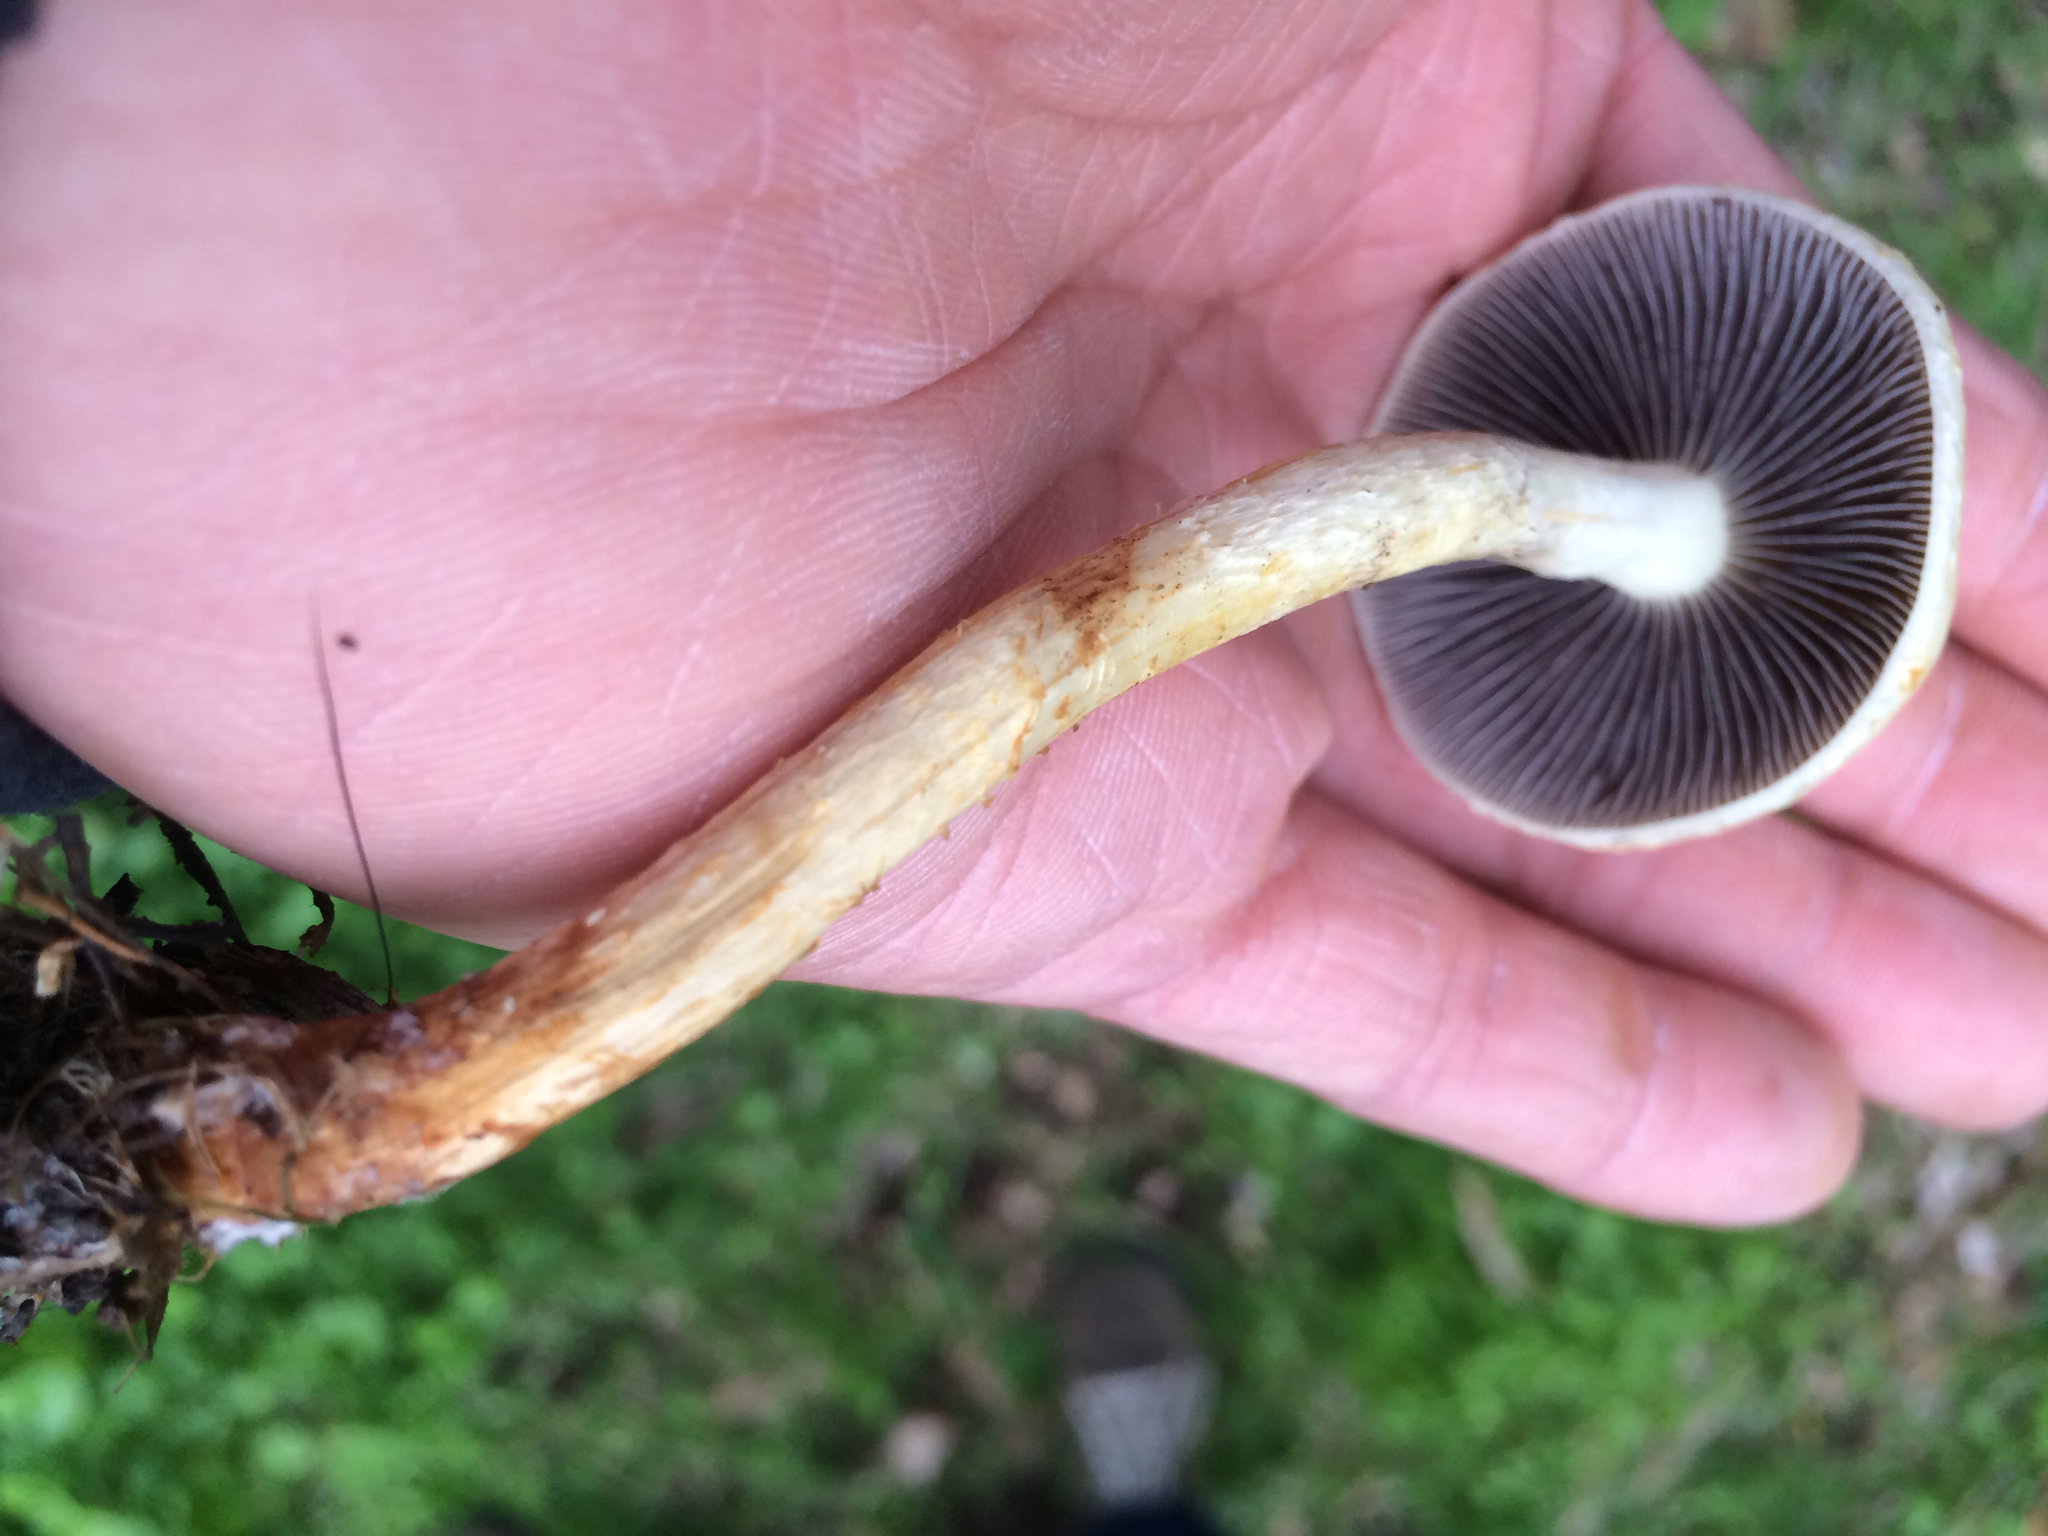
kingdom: Fungi
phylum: Basidiomycota
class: Agaricomycetes
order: Agaricales
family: Strophariaceae
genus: Leratiomyces
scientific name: Leratiomyces percevalii
